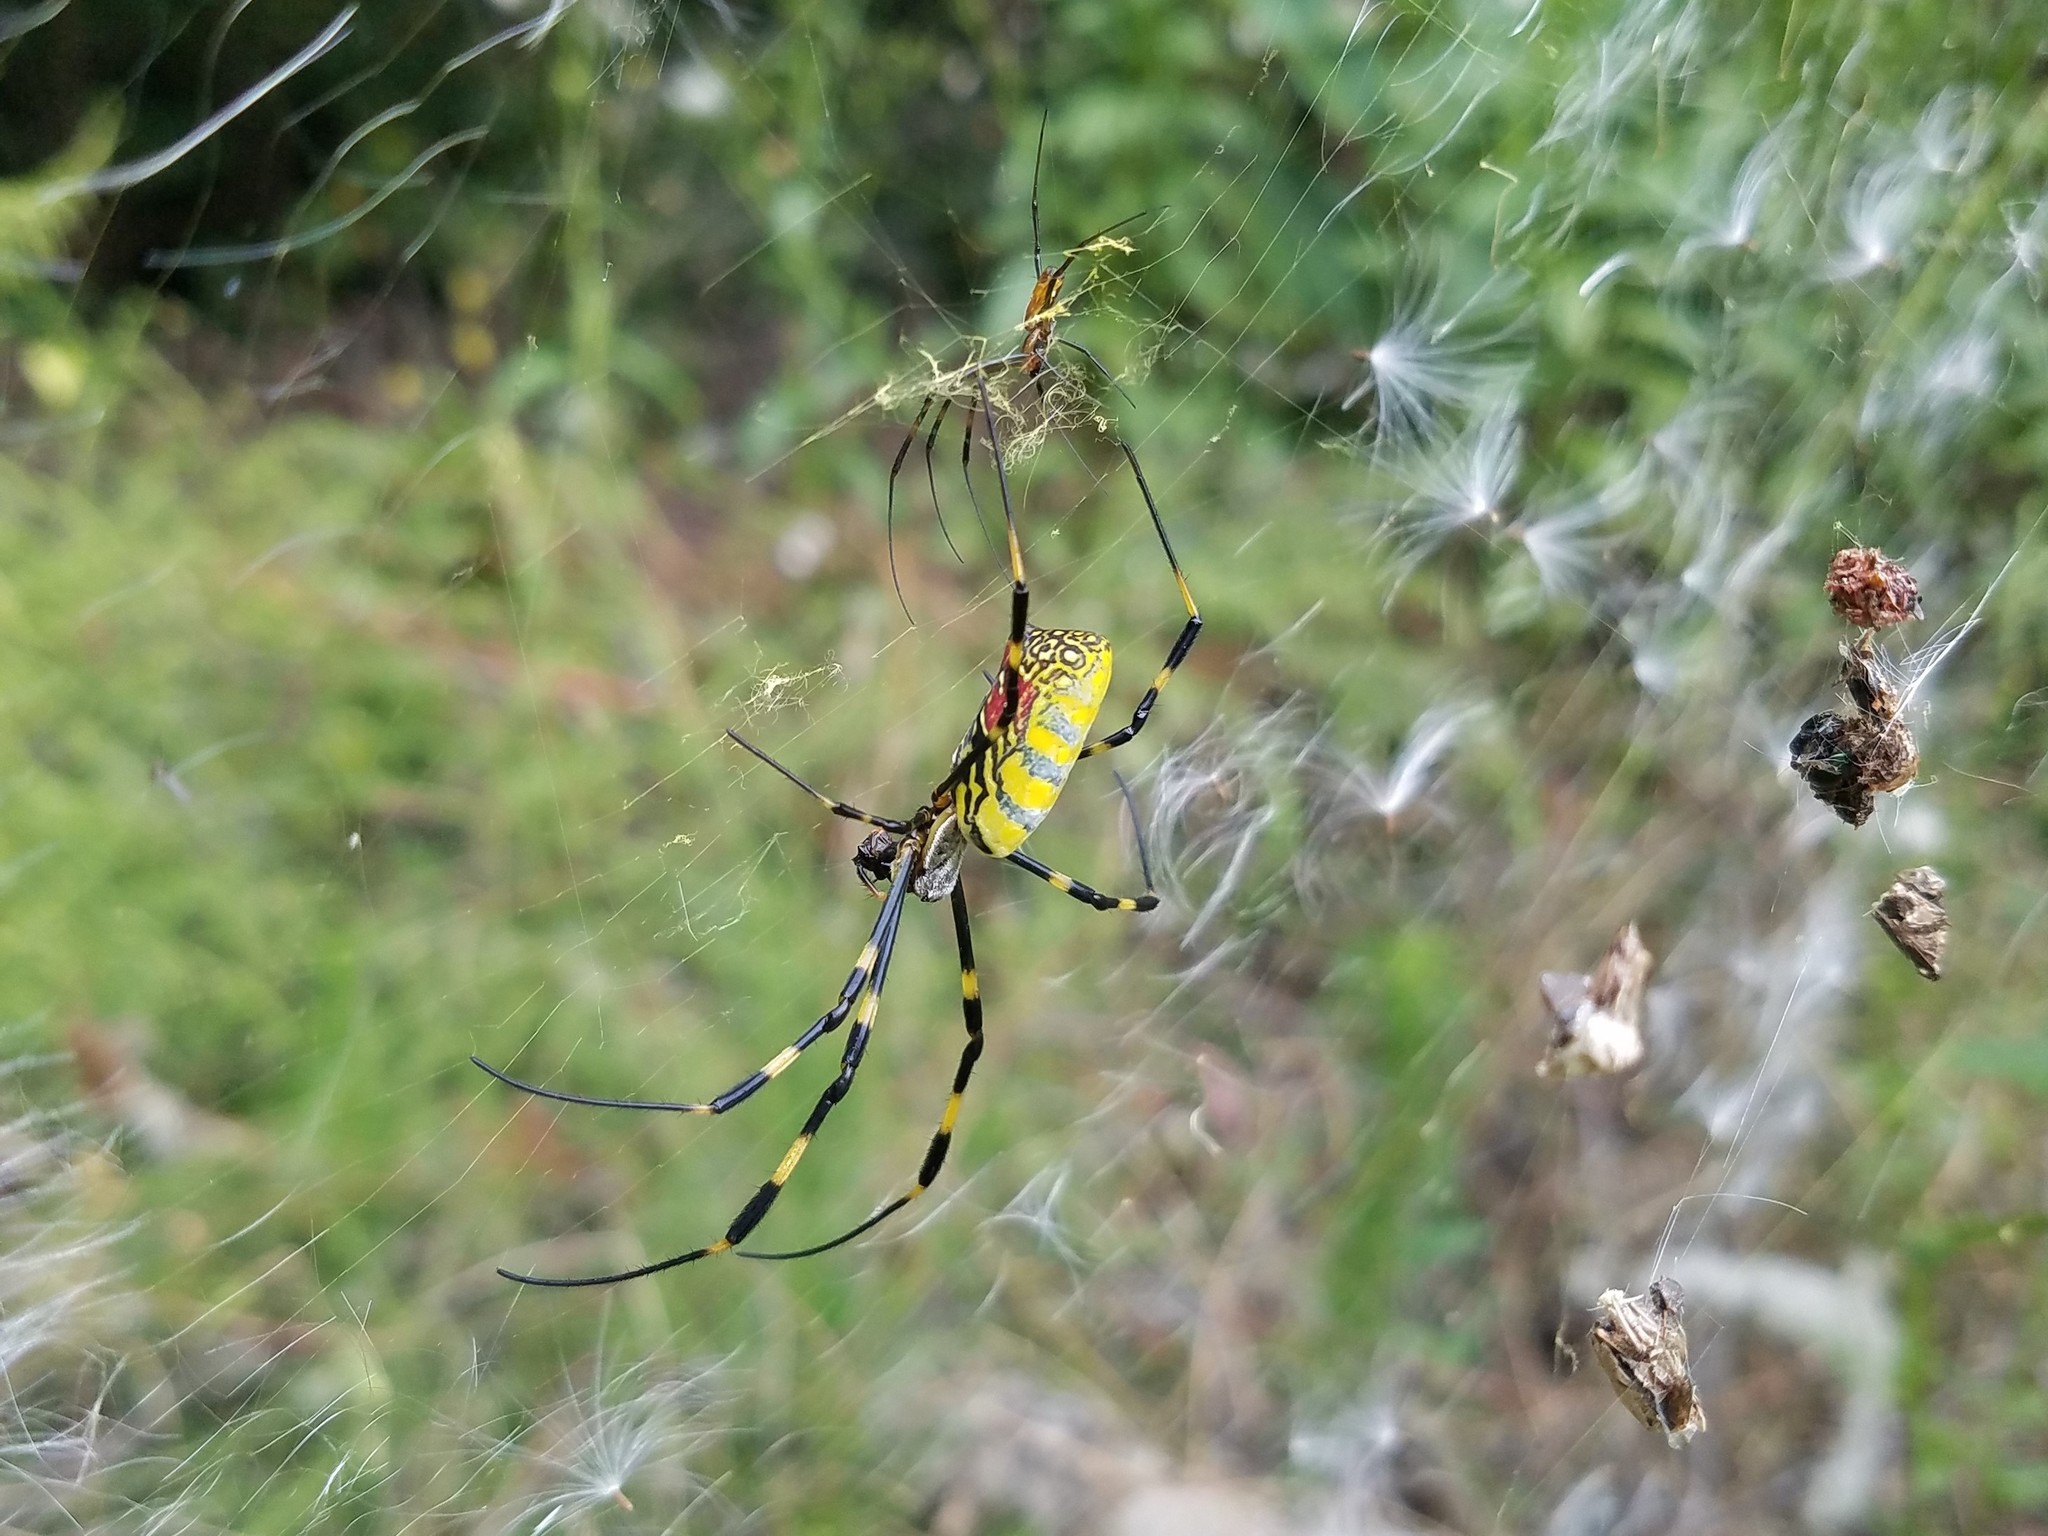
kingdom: Animalia
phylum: Arthropoda
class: Arachnida
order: Araneae
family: Araneidae
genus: Trichonephila
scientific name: Trichonephila clavata
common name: Jorō spider
